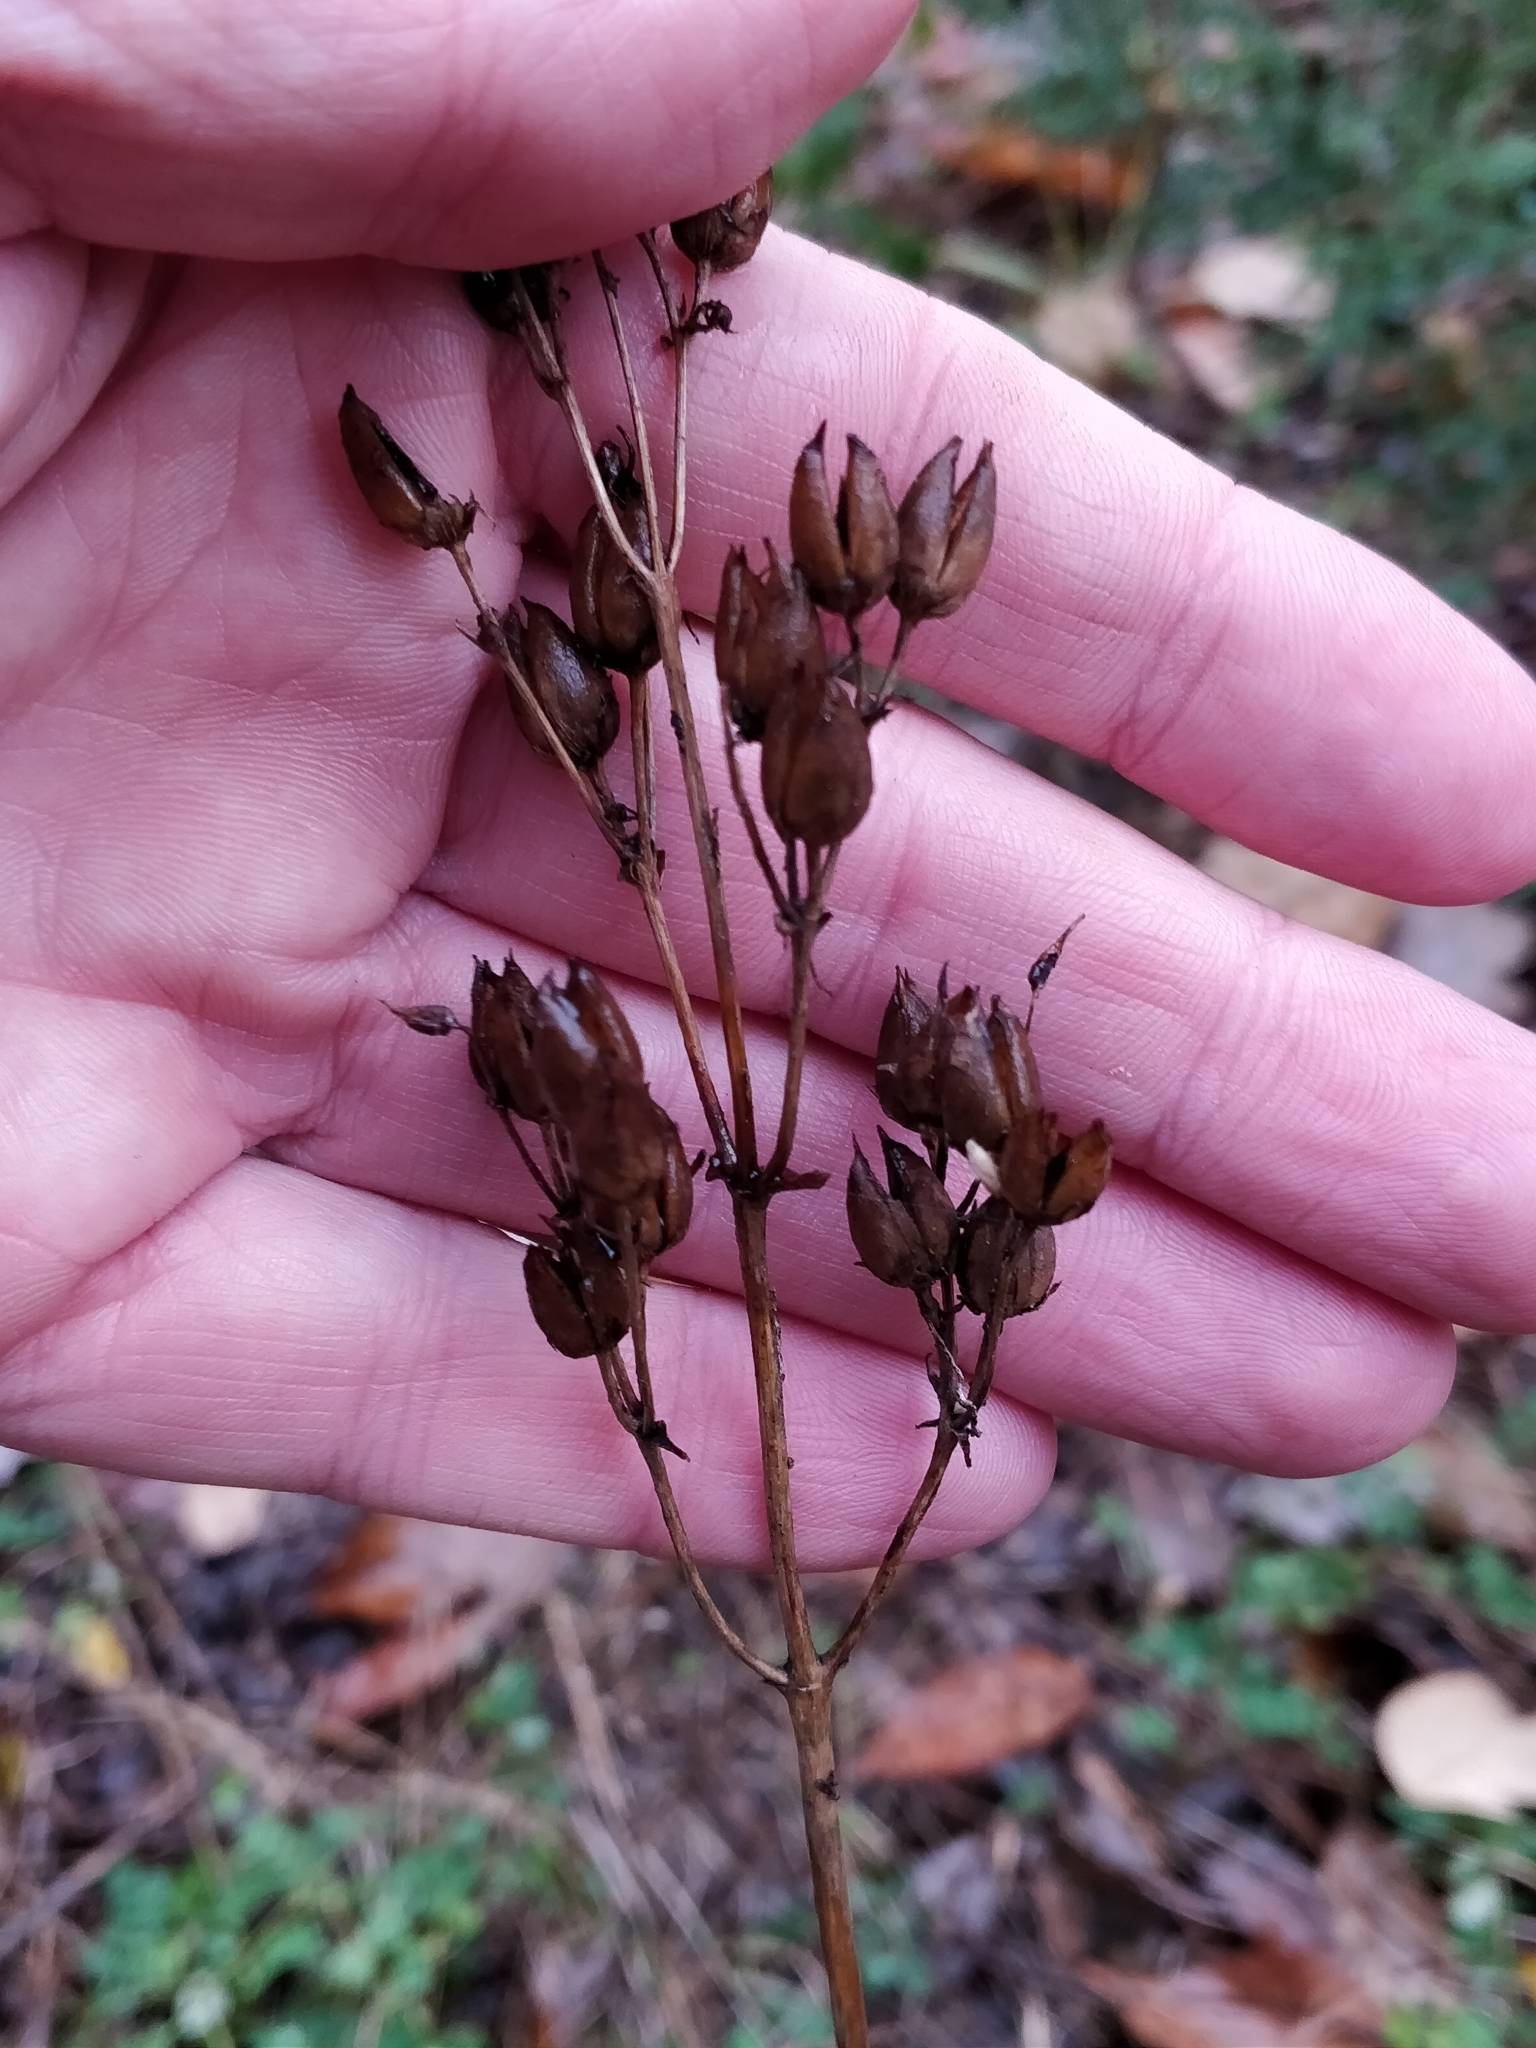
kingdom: Plantae
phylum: Tracheophyta
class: Magnoliopsida
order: Lamiales
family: Plantaginaceae
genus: Penstemon
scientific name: Penstemon digitalis
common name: Foxglove beardtongue
